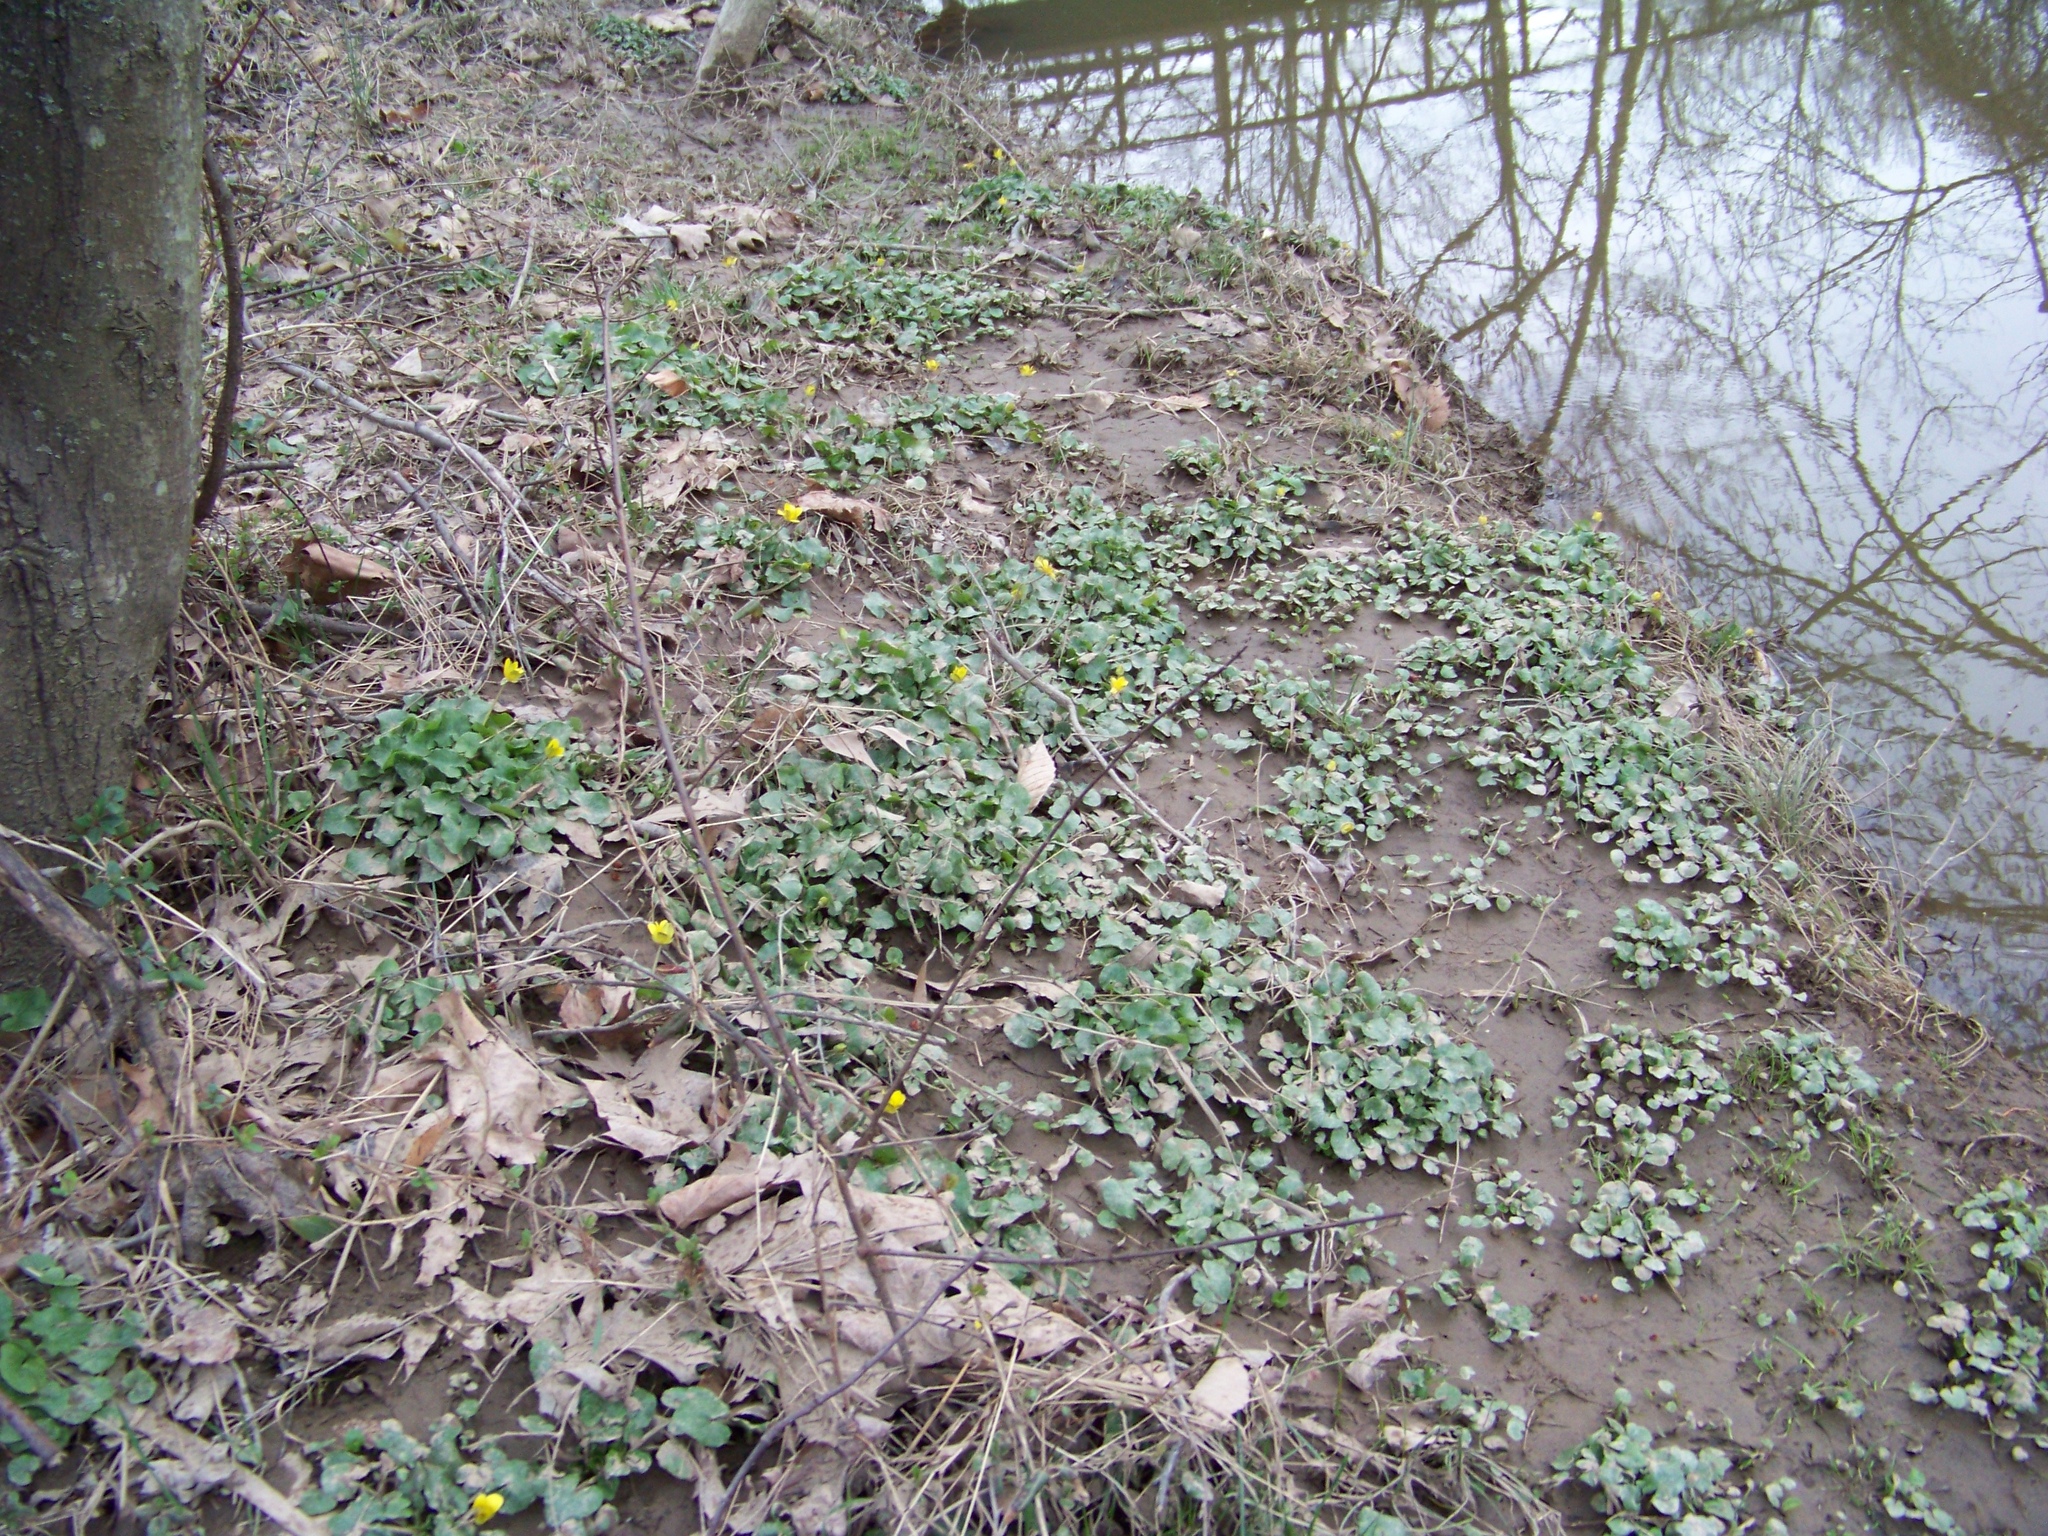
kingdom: Plantae
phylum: Tracheophyta
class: Magnoliopsida
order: Ranunculales
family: Ranunculaceae
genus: Ficaria
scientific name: Ficaria verna
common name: Lesser celandine
